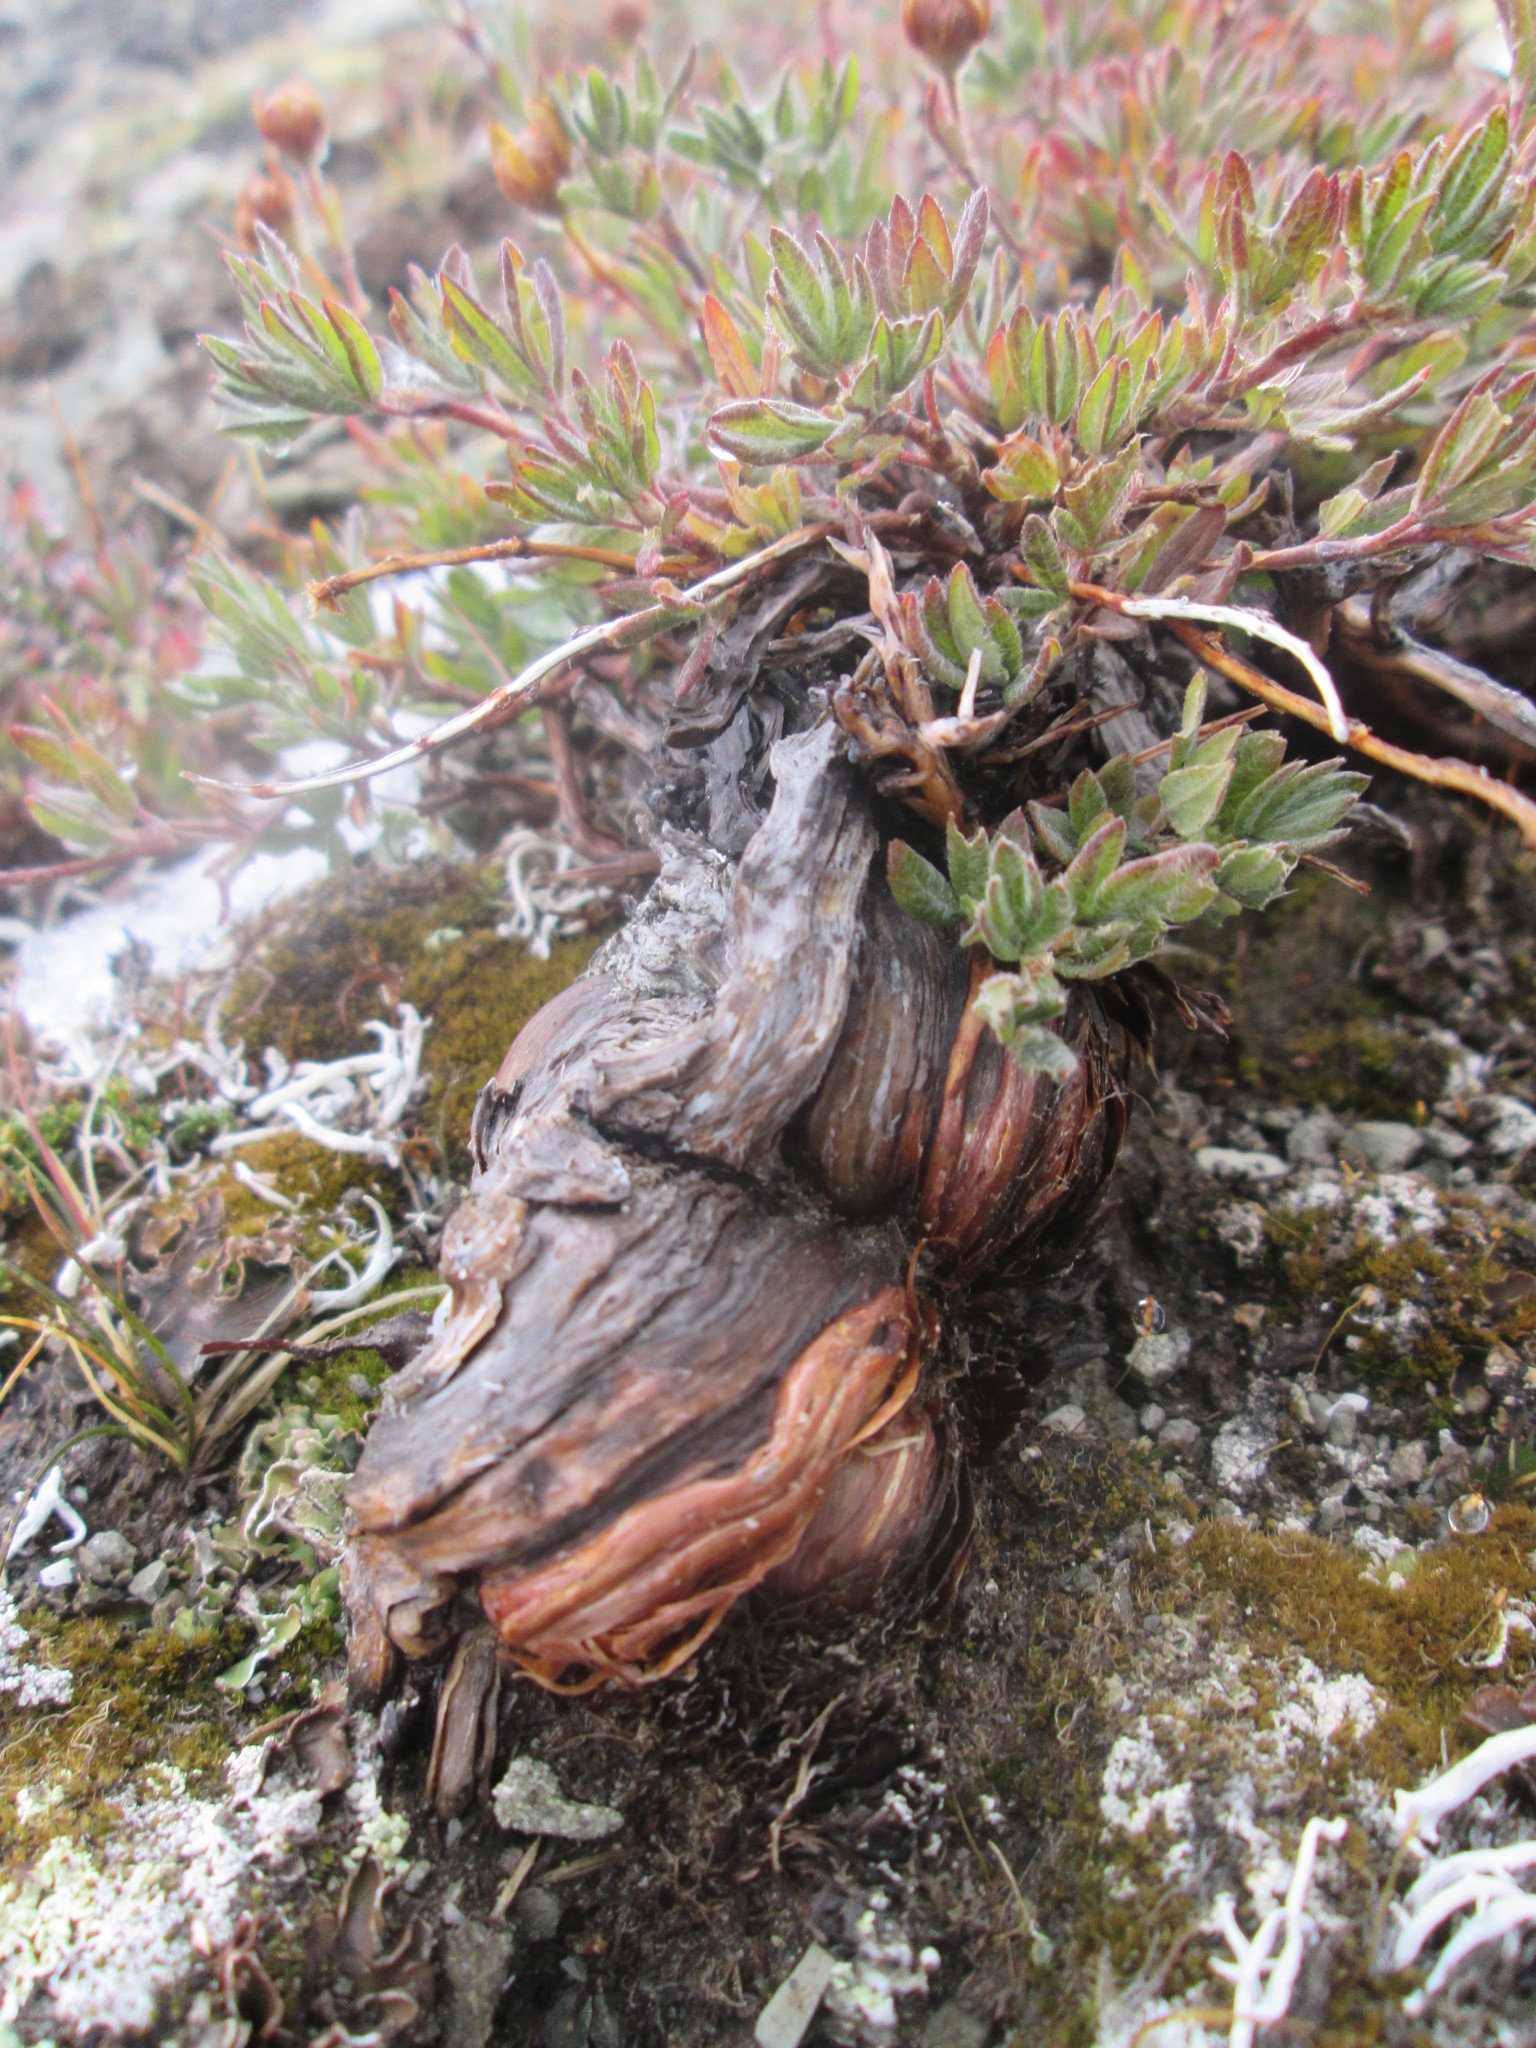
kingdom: Plantae
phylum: Tracheophyta
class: Magnoliopsida
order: Rosales
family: Rosaceae
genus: Dasiphora
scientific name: Dasiphora fruticosa
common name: Shrubby cinquefoil
